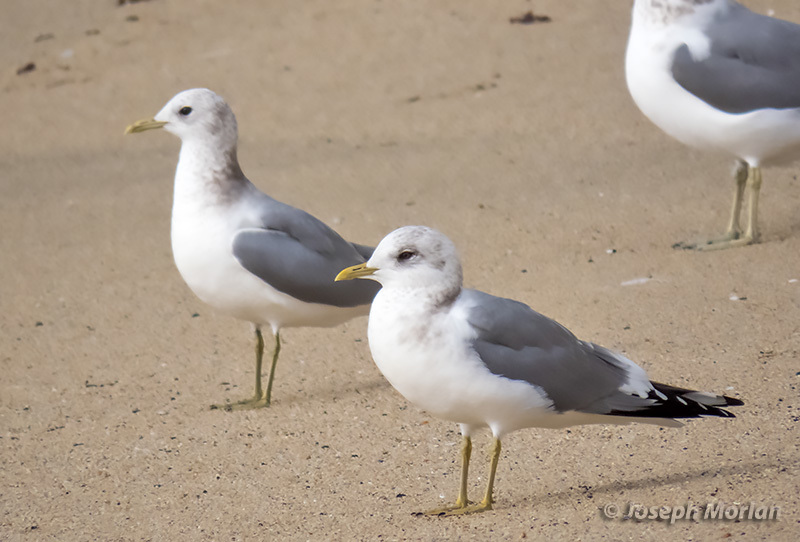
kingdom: Animalia
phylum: Chordata
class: Aves
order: Charadriiformes
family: Laridae
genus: Larus
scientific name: Larus brachyrhynchus
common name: Short-billed gull
